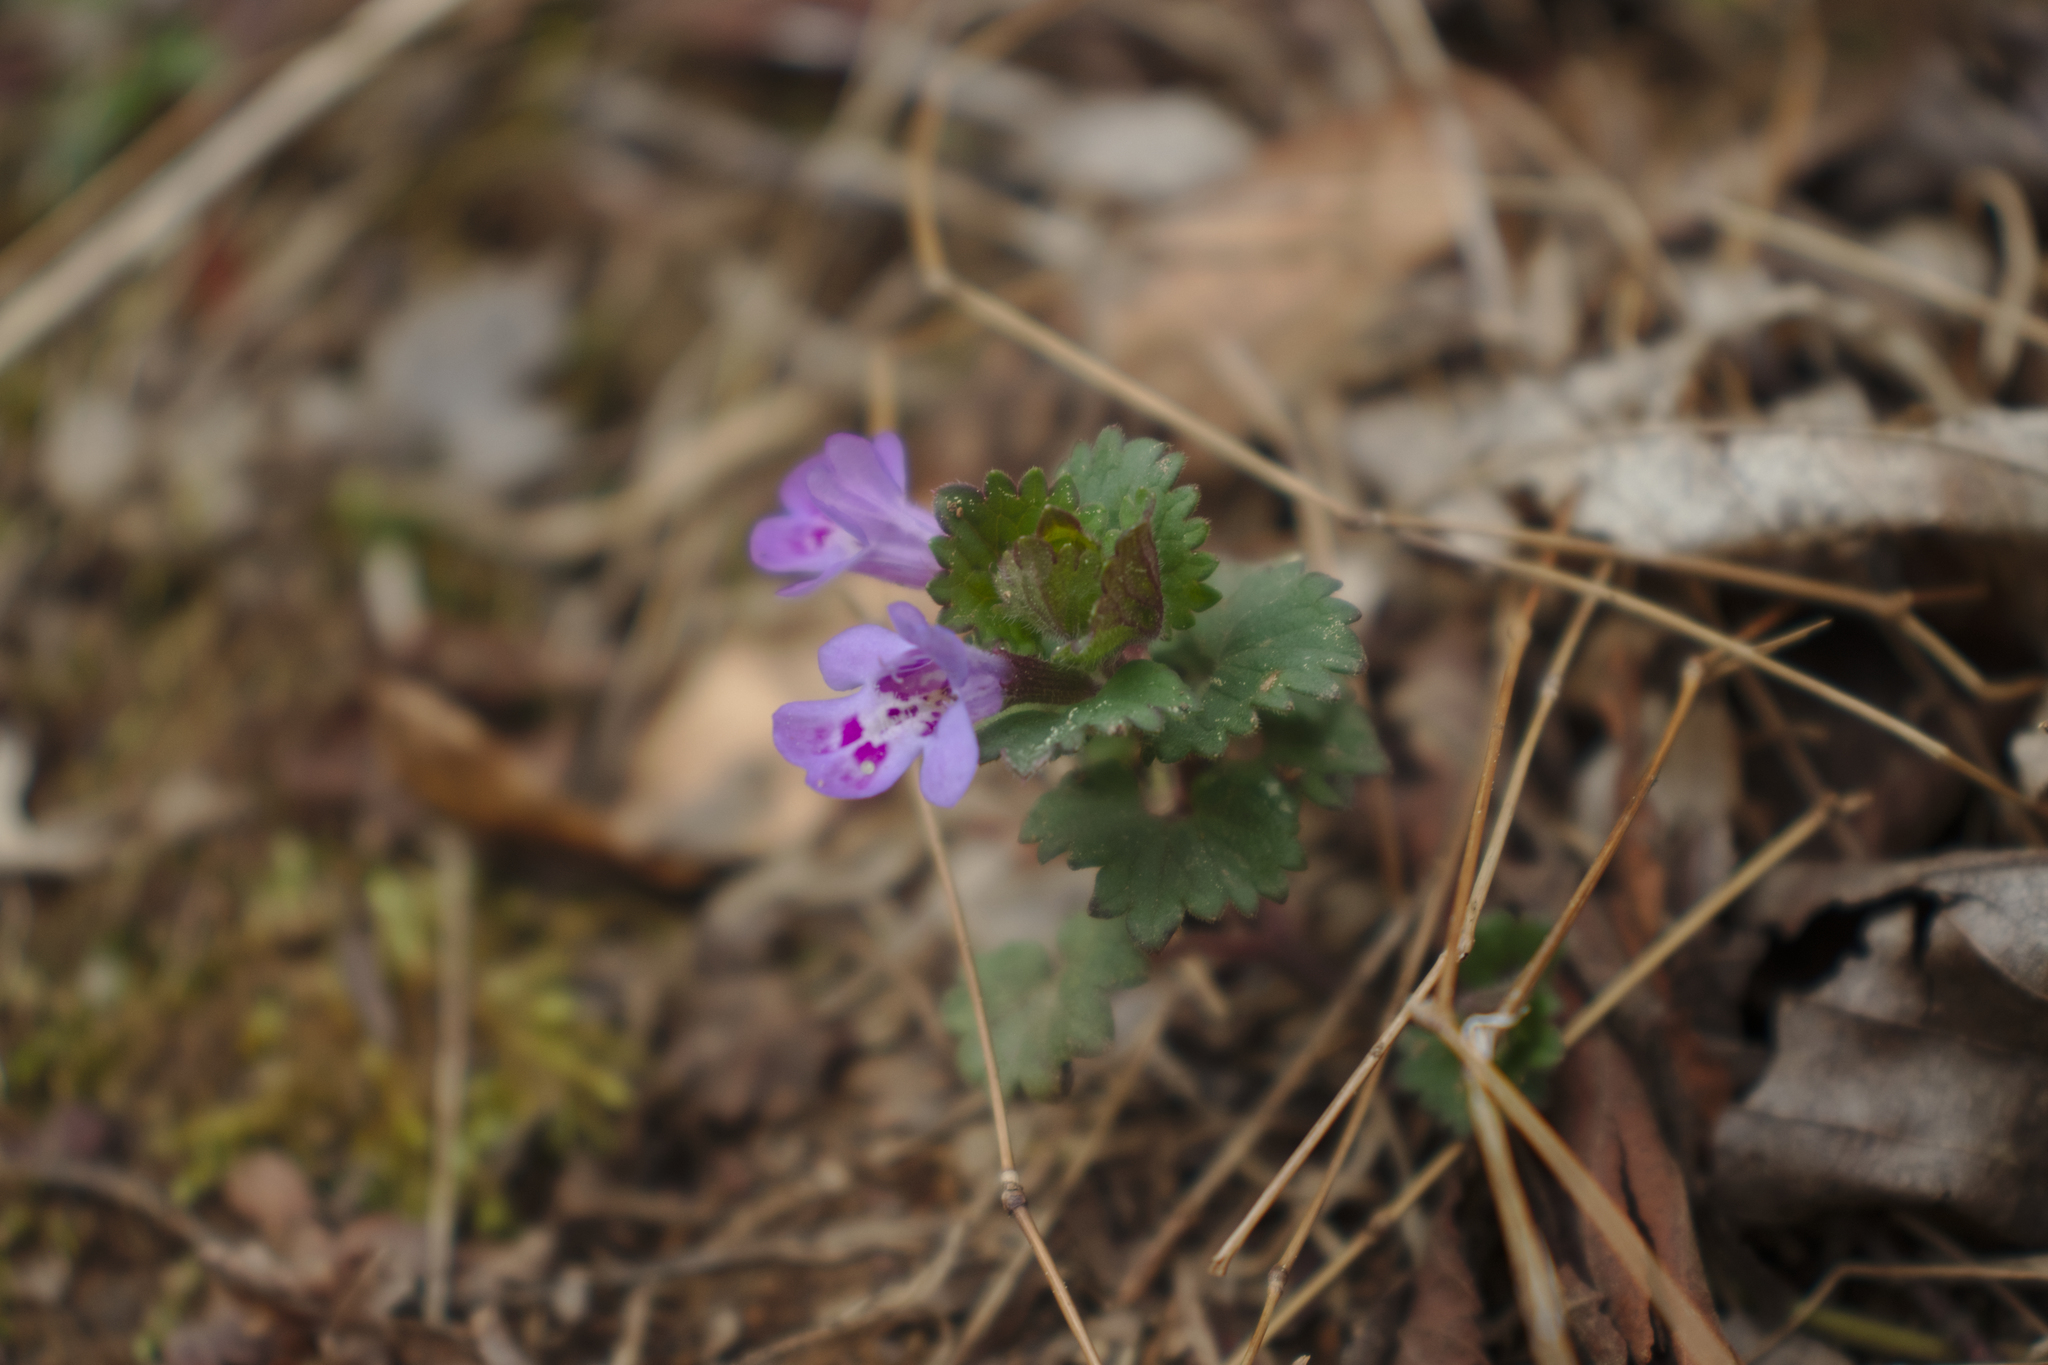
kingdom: Plantae
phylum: Tracheophyta
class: Magnoliopsida
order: Lamiales
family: Lamiaceae
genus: Glechoma
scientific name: Glechoma hederacea
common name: Ground ivy
